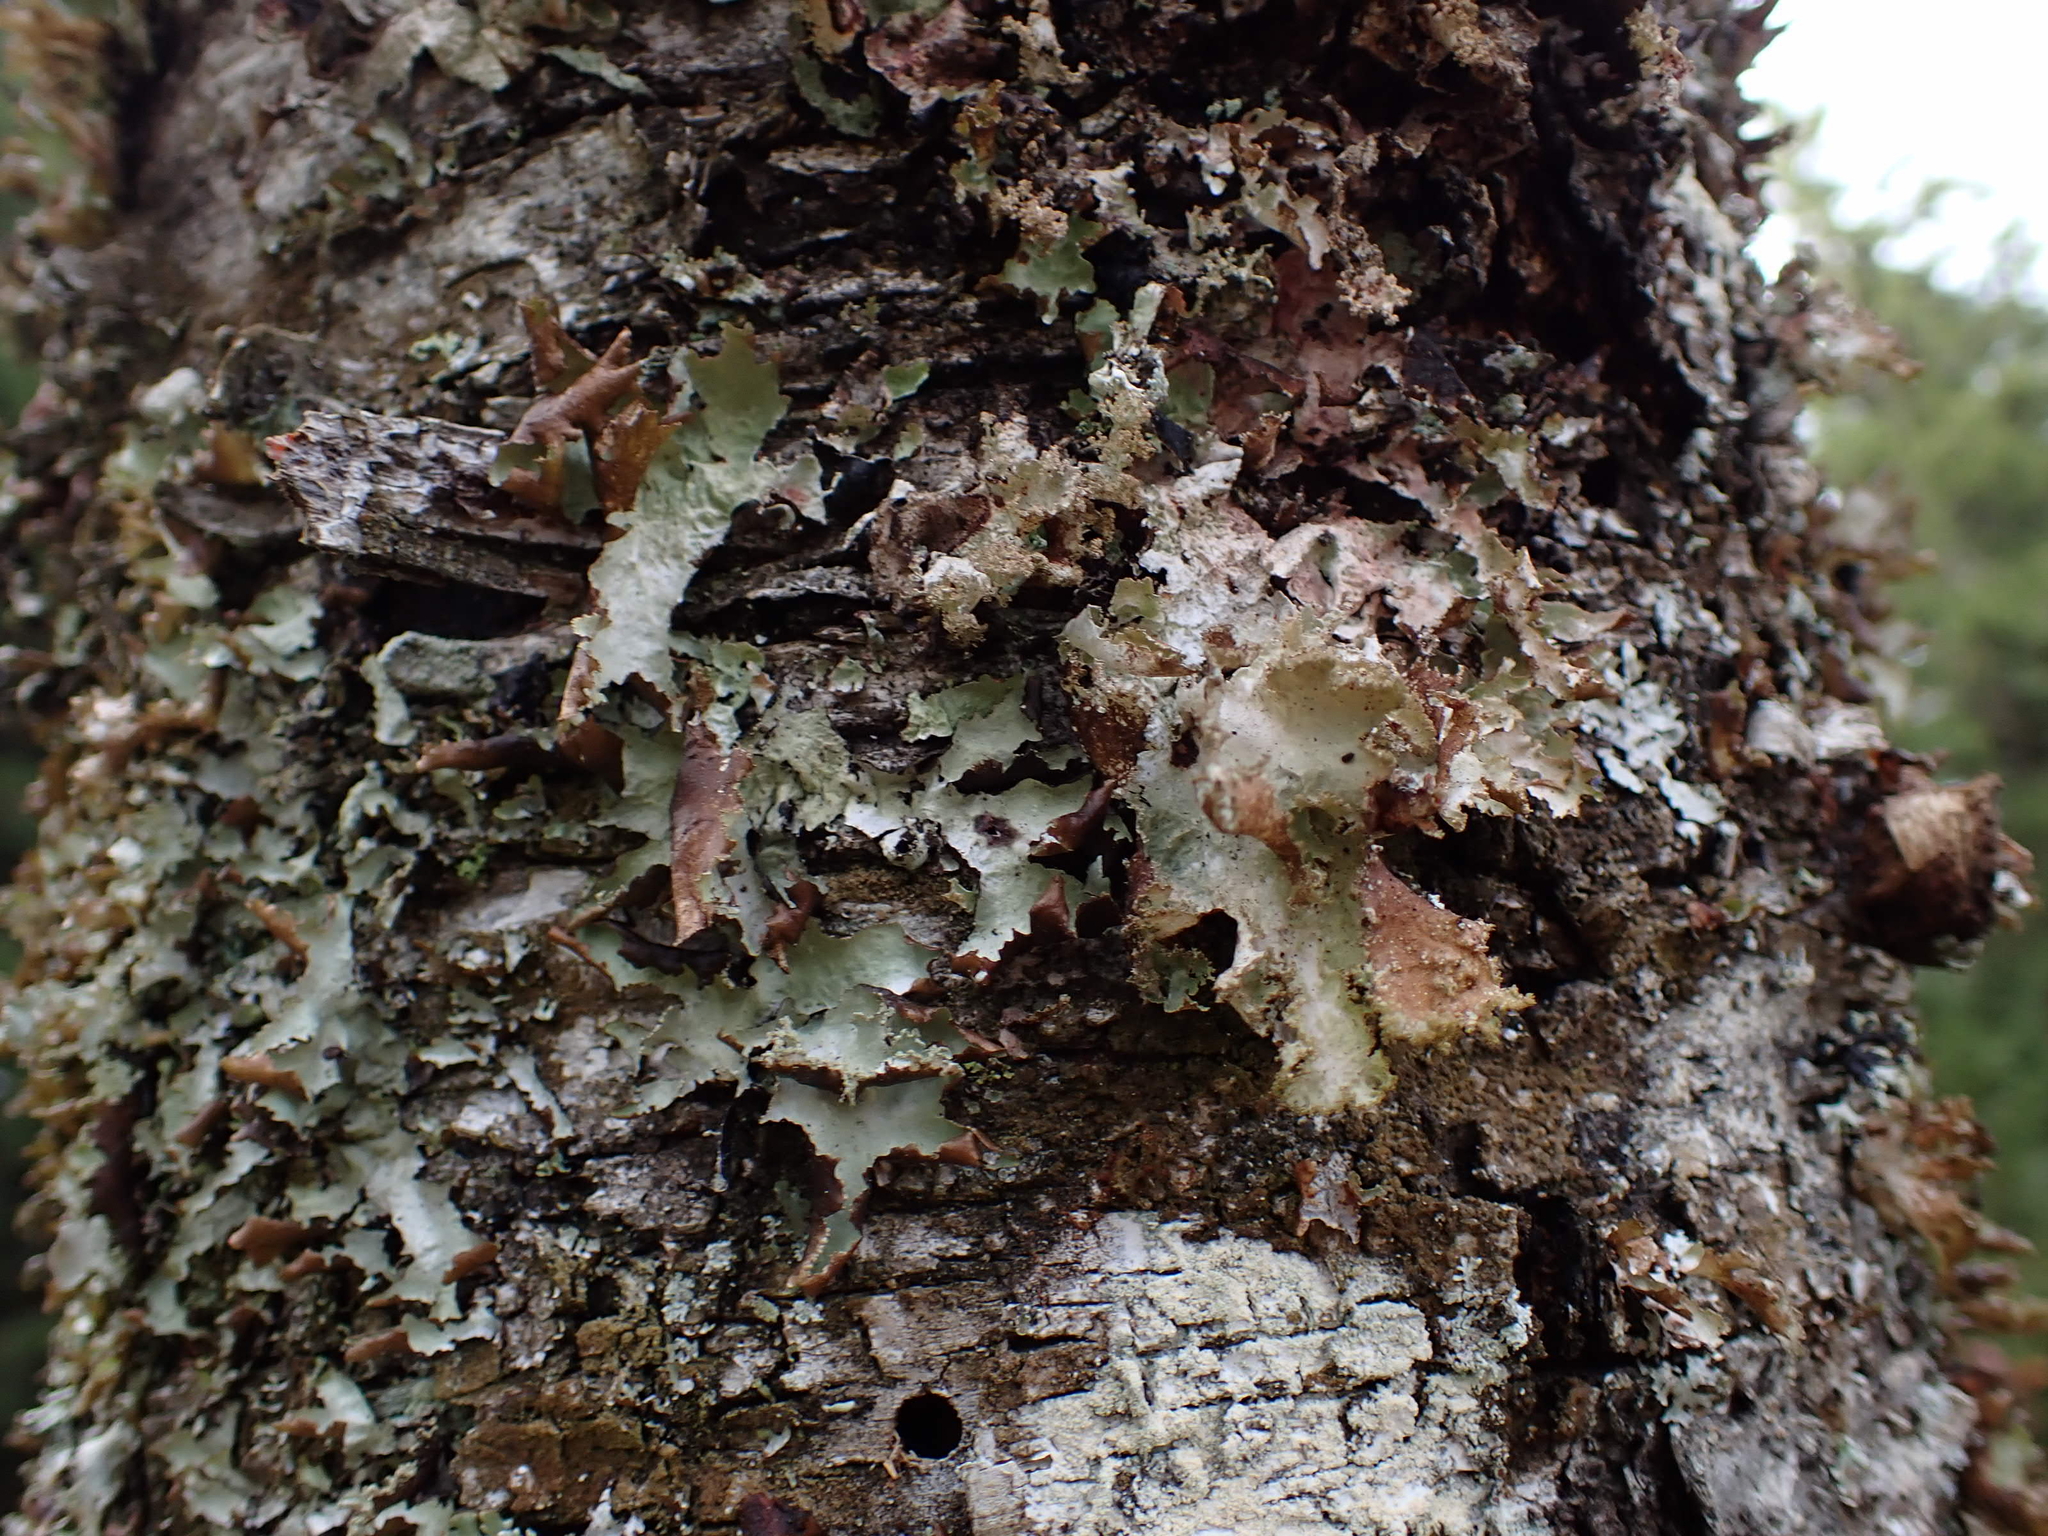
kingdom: Fungi
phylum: Ascomycota
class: Lecanoromycetes
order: Lecanorales
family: Parmeliaceae
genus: Platismatia
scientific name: Platismatia glauca
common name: Varied rag lichen
